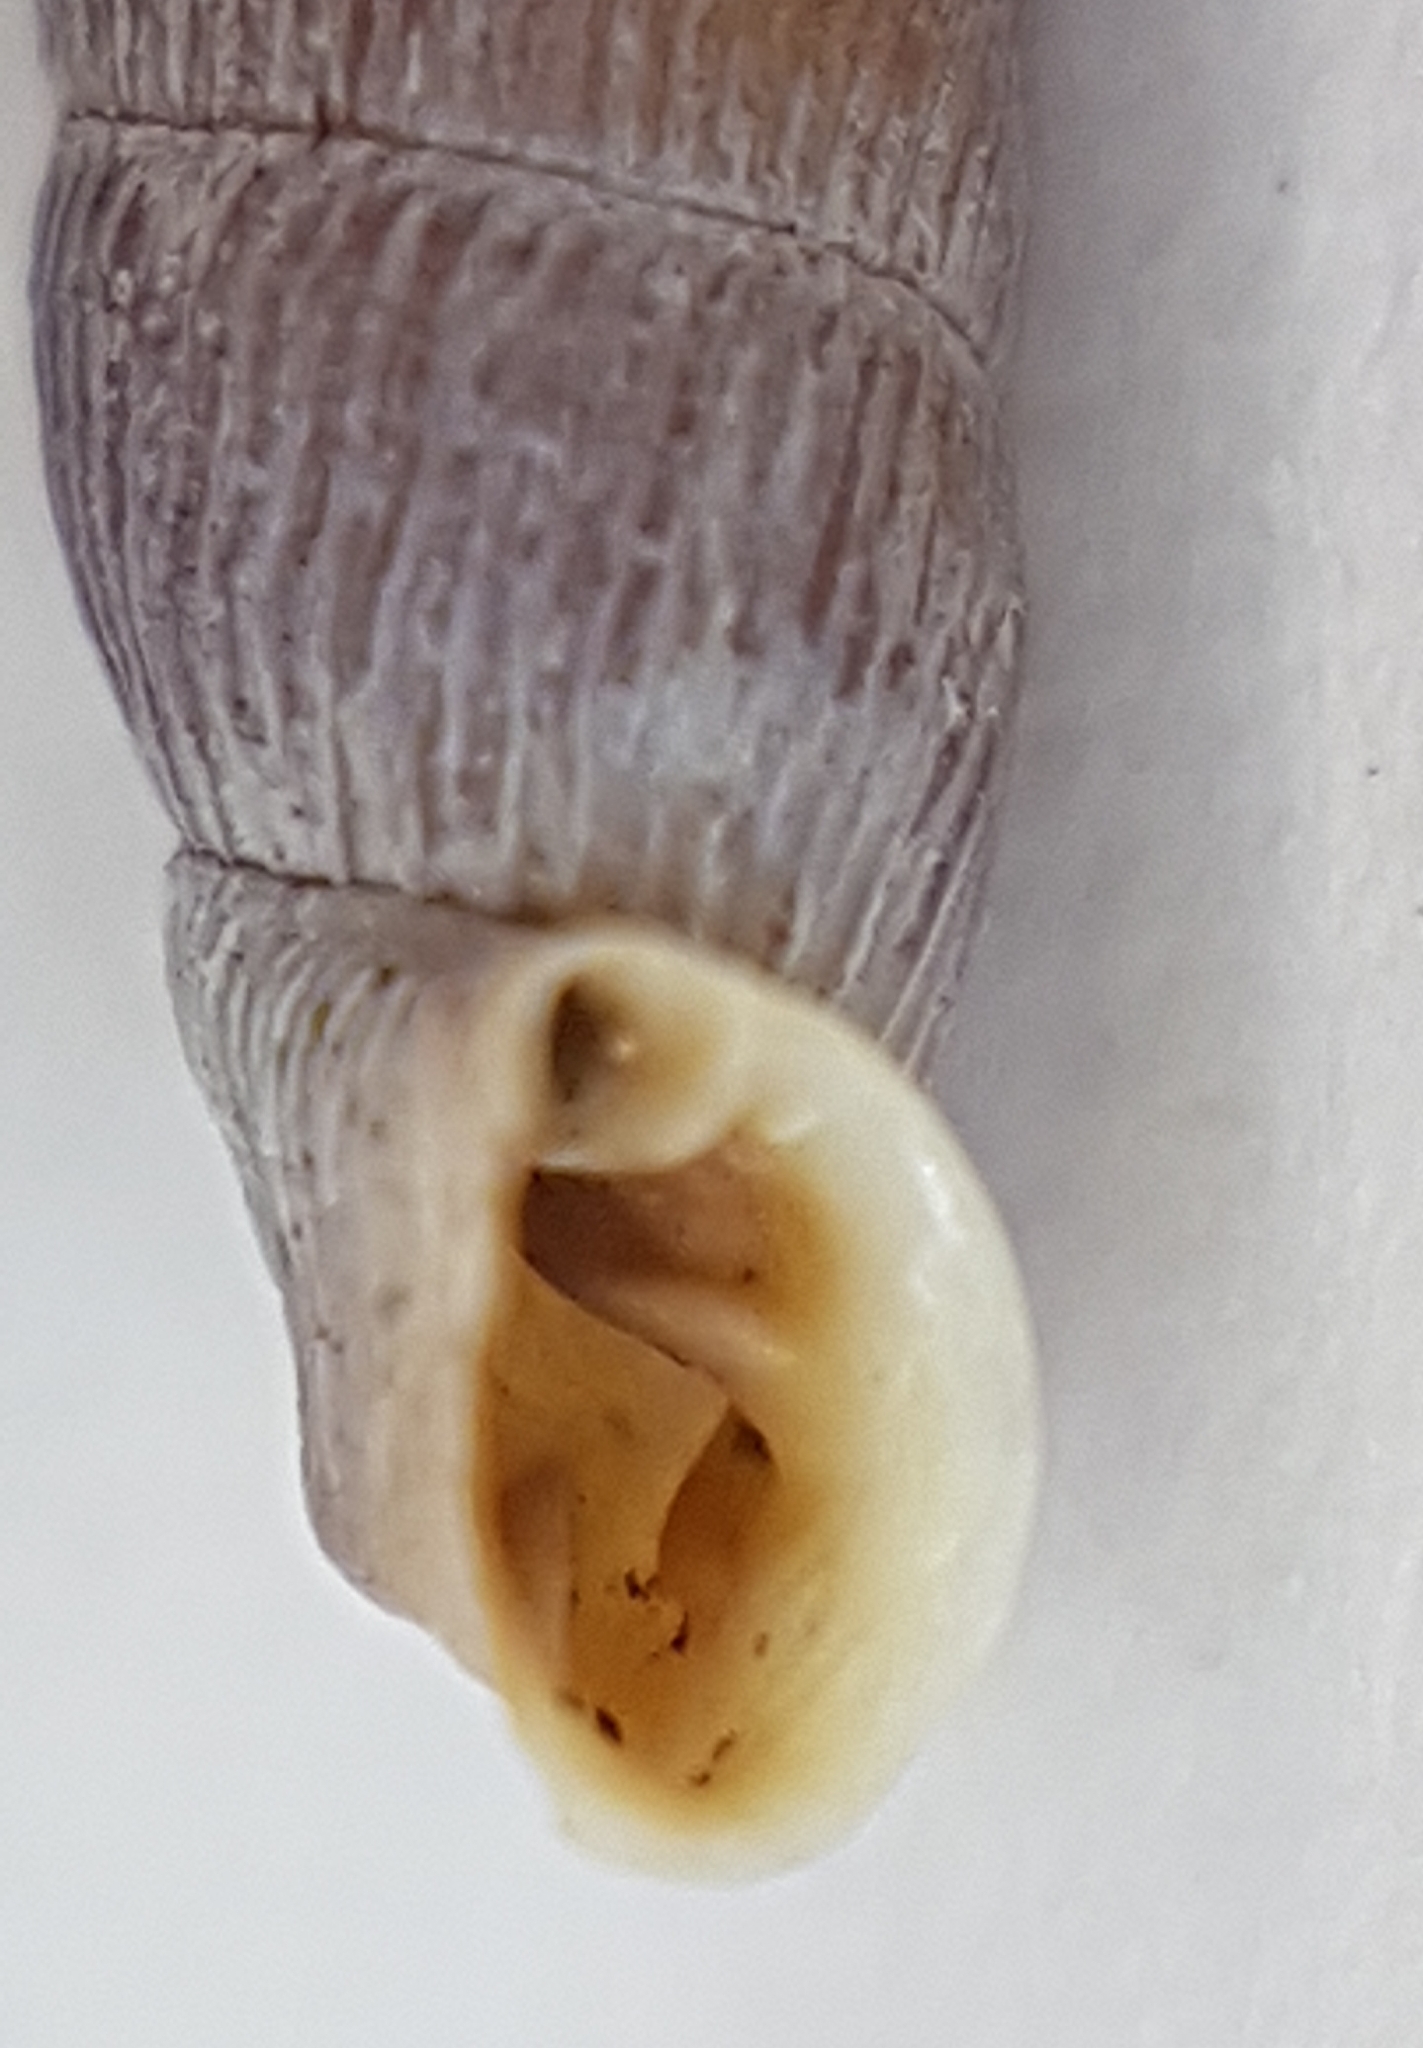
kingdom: Animalia
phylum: Mollusca
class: Gastropoda
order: Stylommatophora
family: Clausiliidae
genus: Clausilia
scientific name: Clausilia bidentata
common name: Two-toothed door snail
